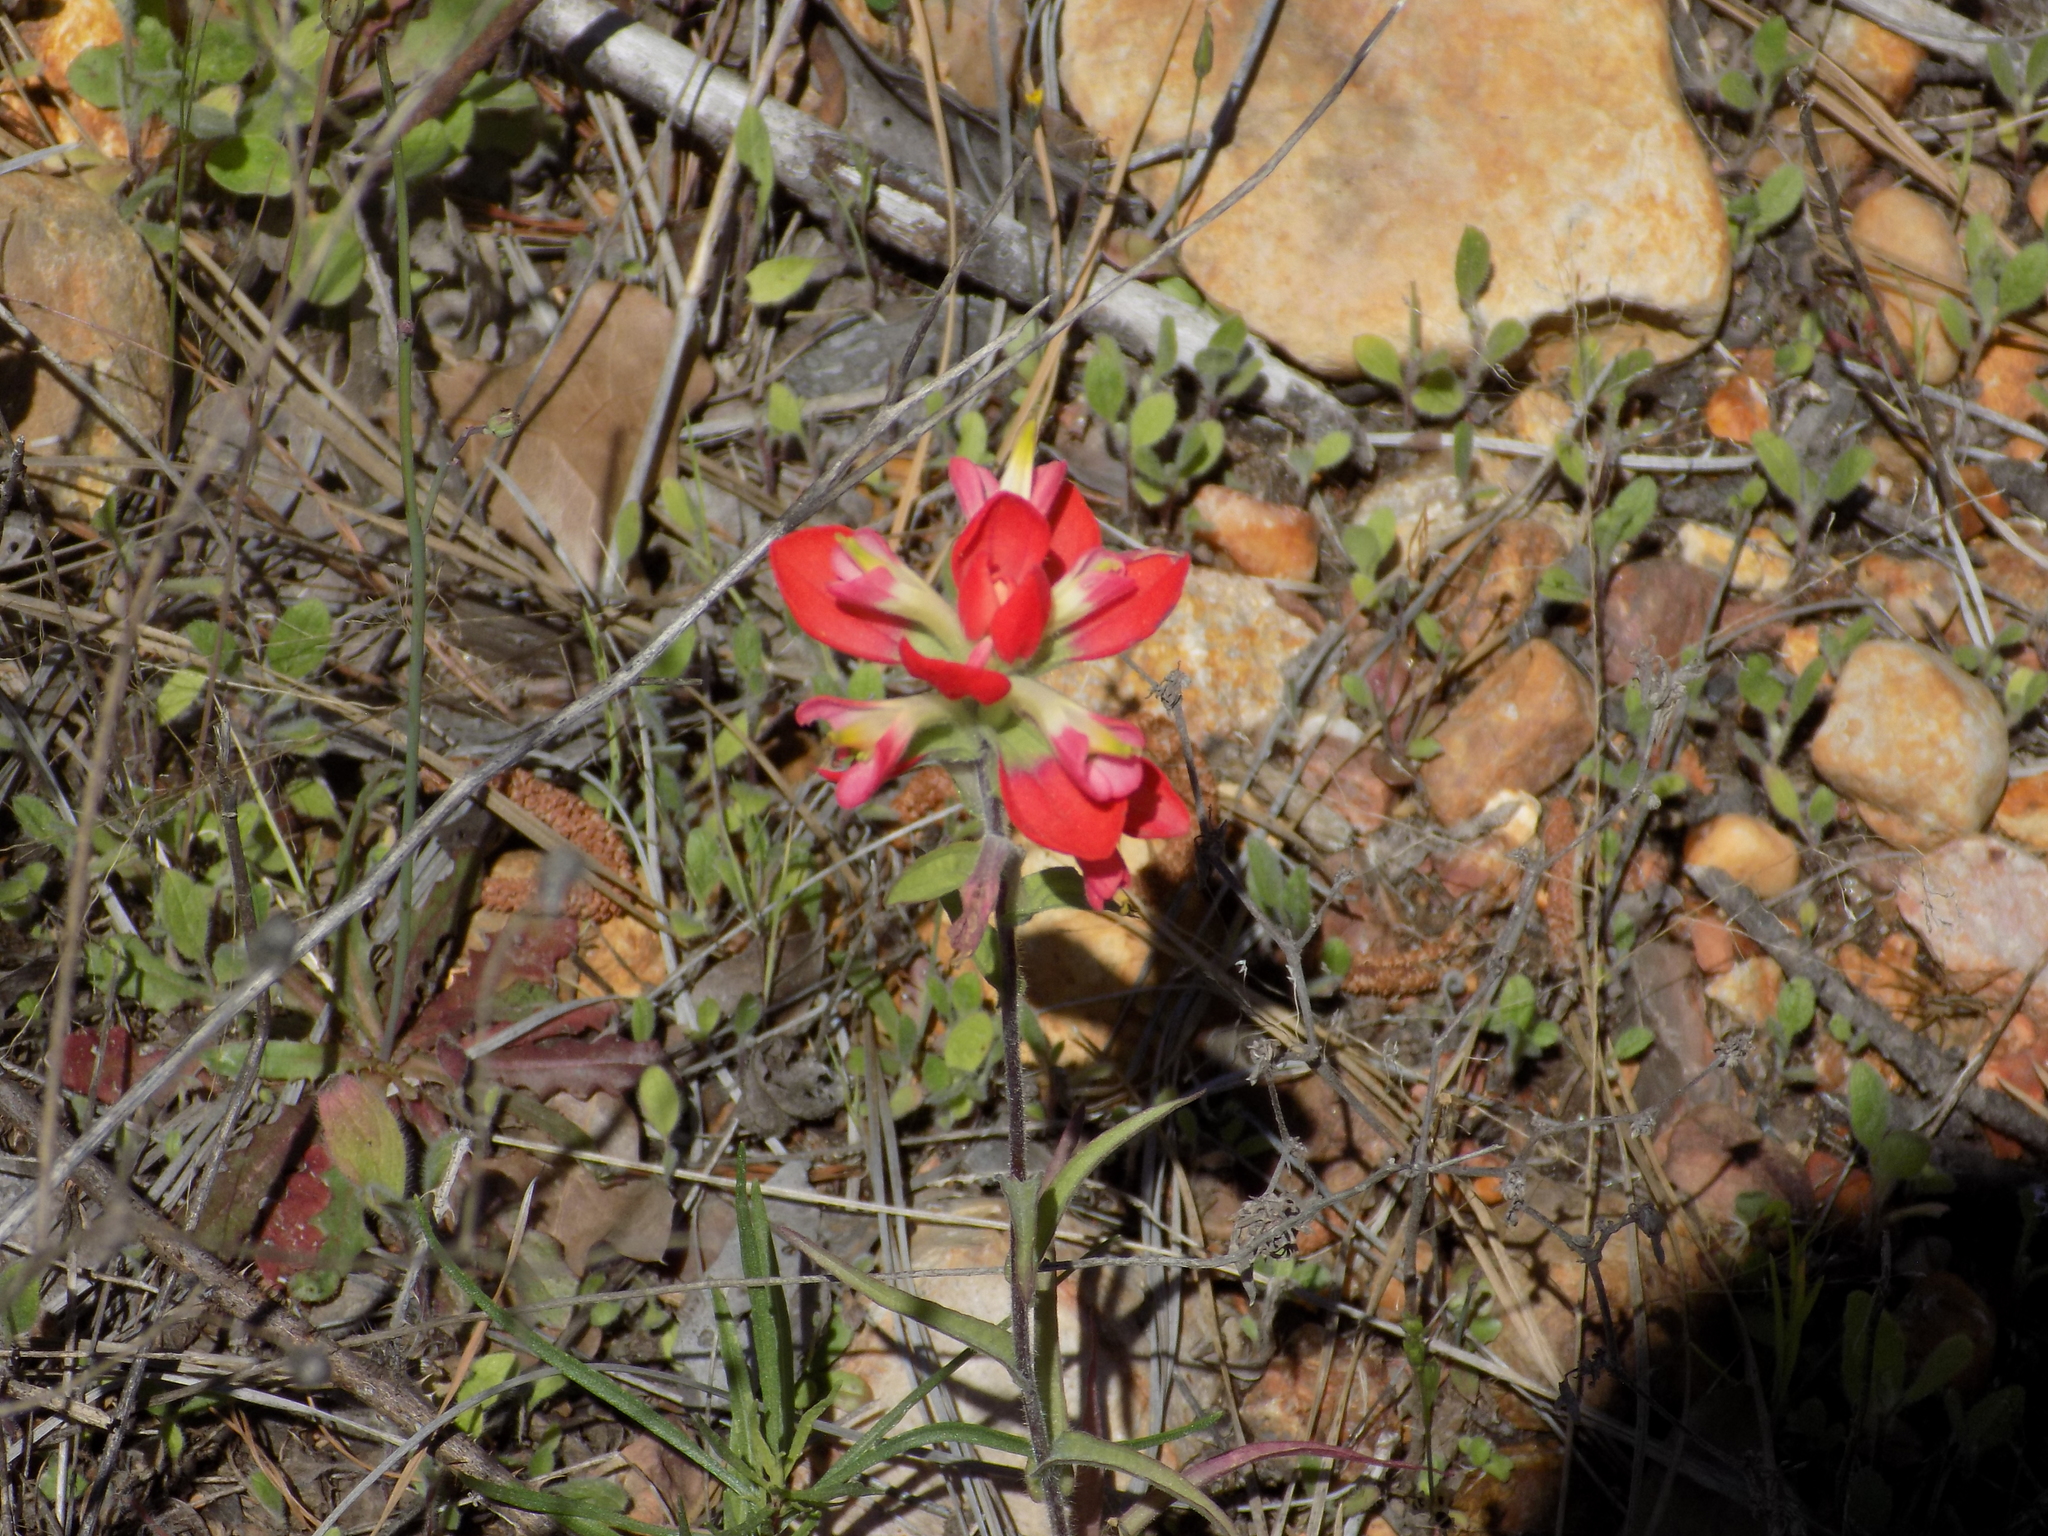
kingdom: Plantae
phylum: Tracheophyta
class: Magnoliopsida
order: Lamiales
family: Orobanchaceae
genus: Castilleja
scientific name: Castilleja indivisa
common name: Texas paintbrush
